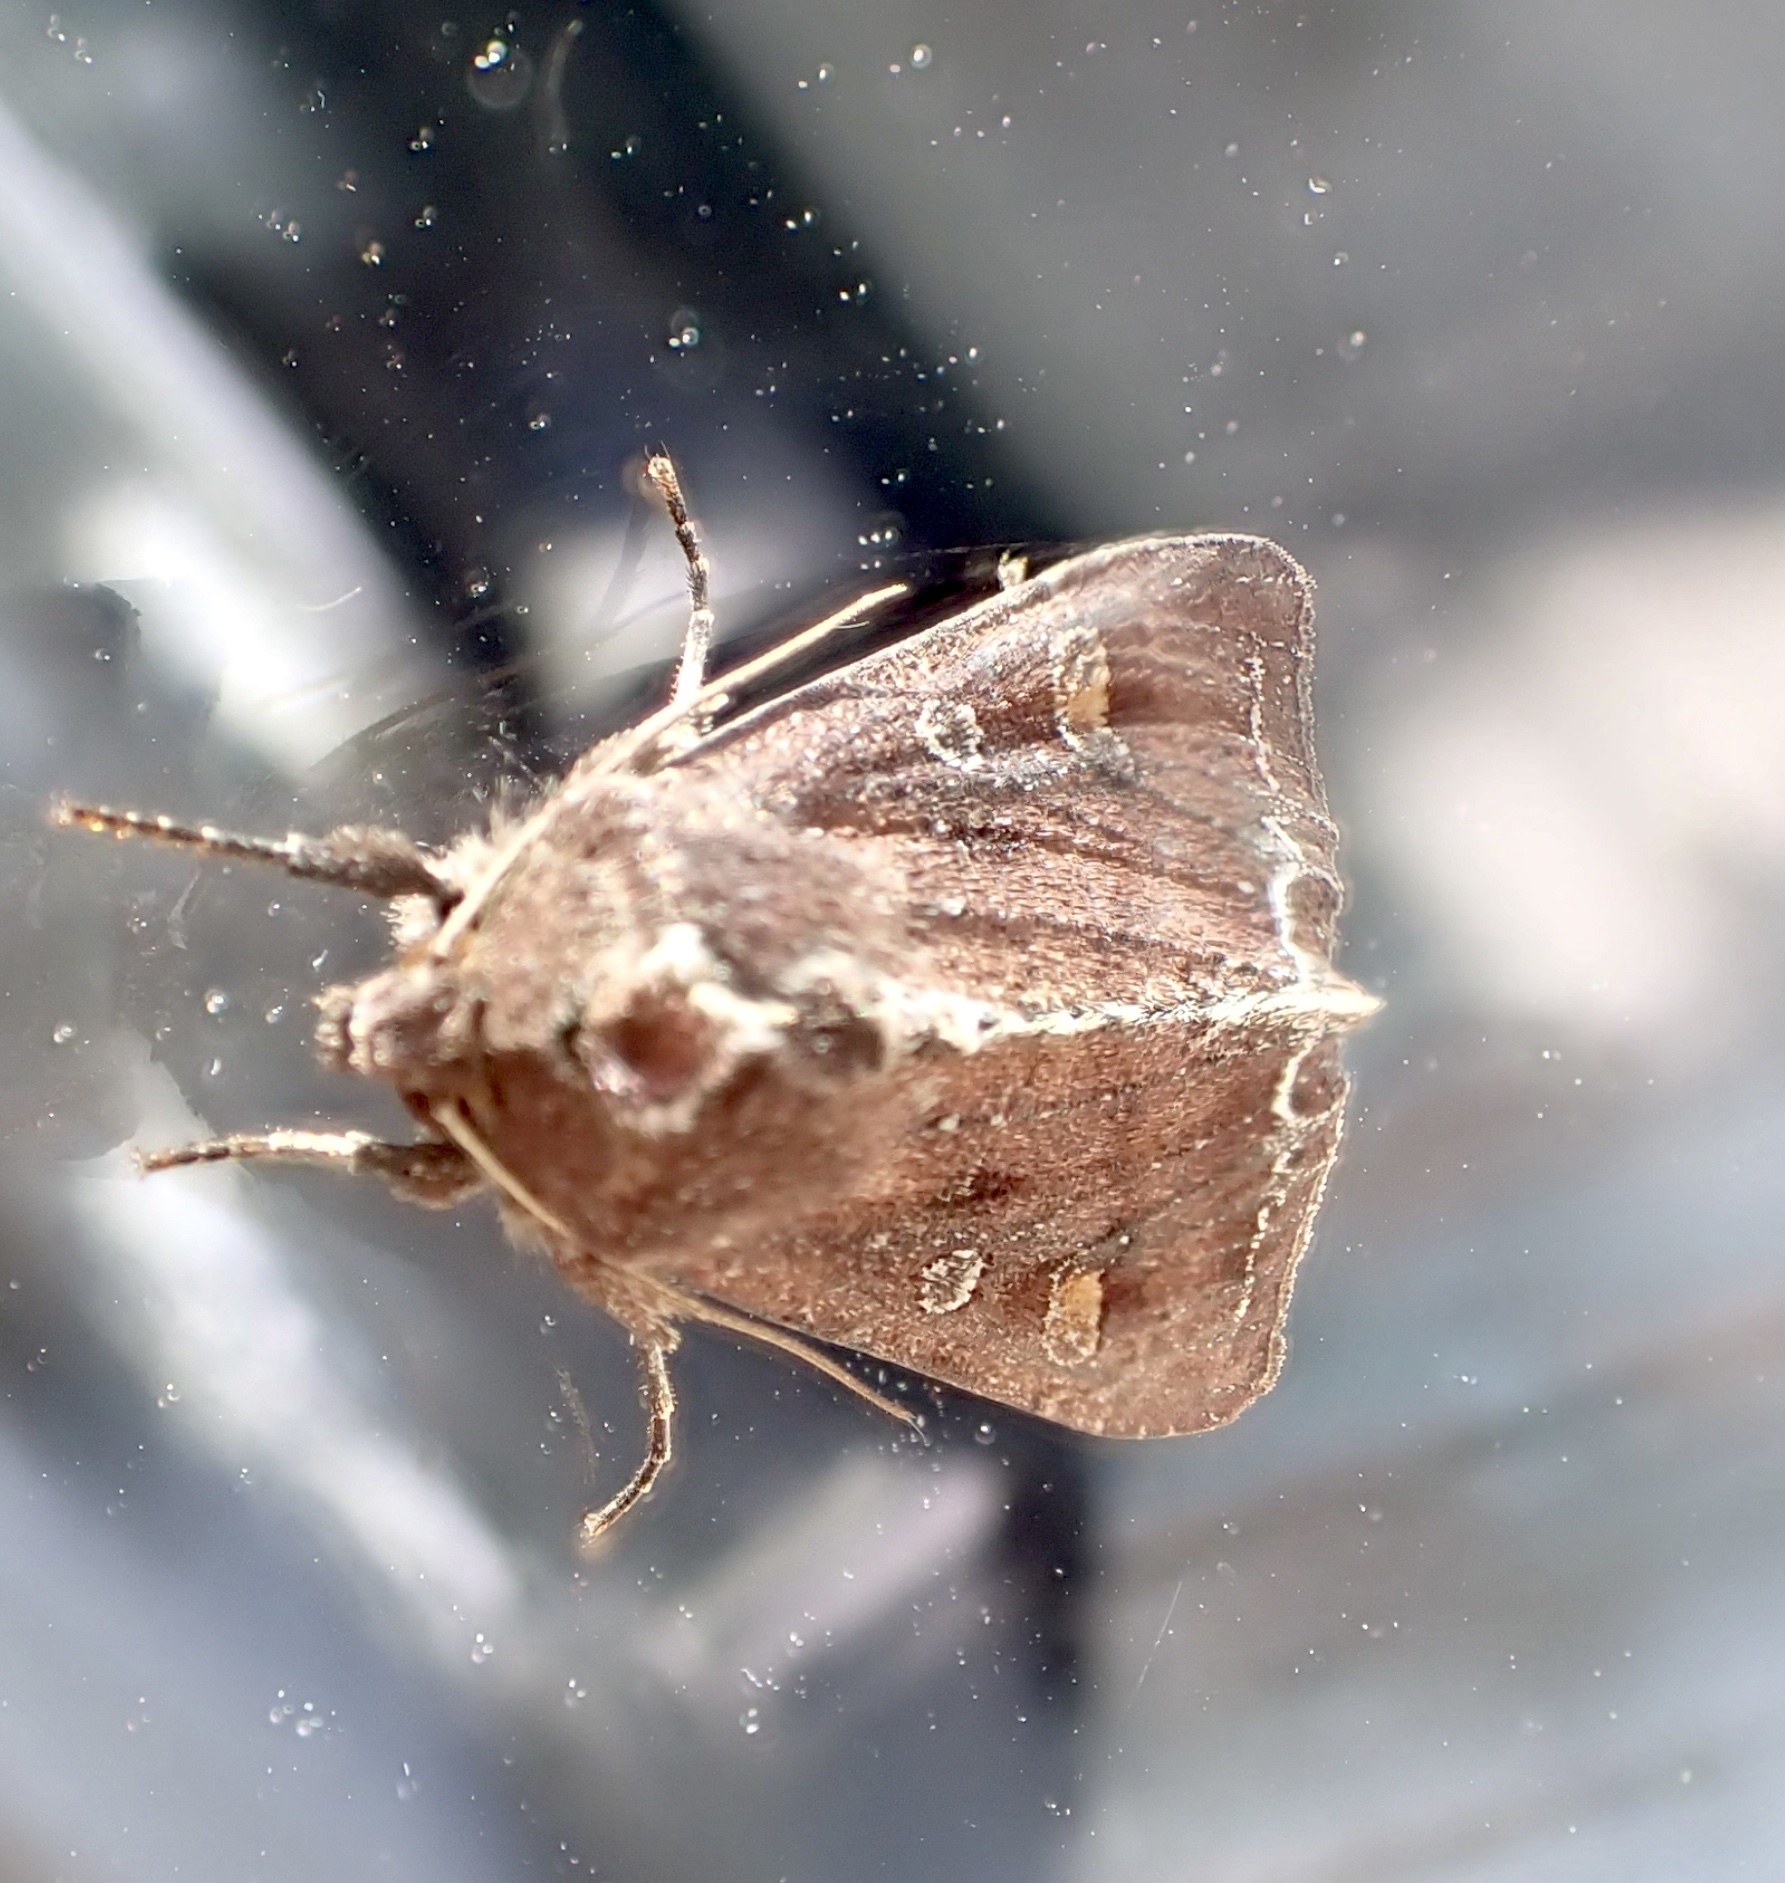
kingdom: Animalia
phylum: Arthropoda
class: Insecta
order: Lepidoptera
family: Noctuidae
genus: Lacanobia
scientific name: Lacanobia oleracea
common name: Bright-line brown-eye
